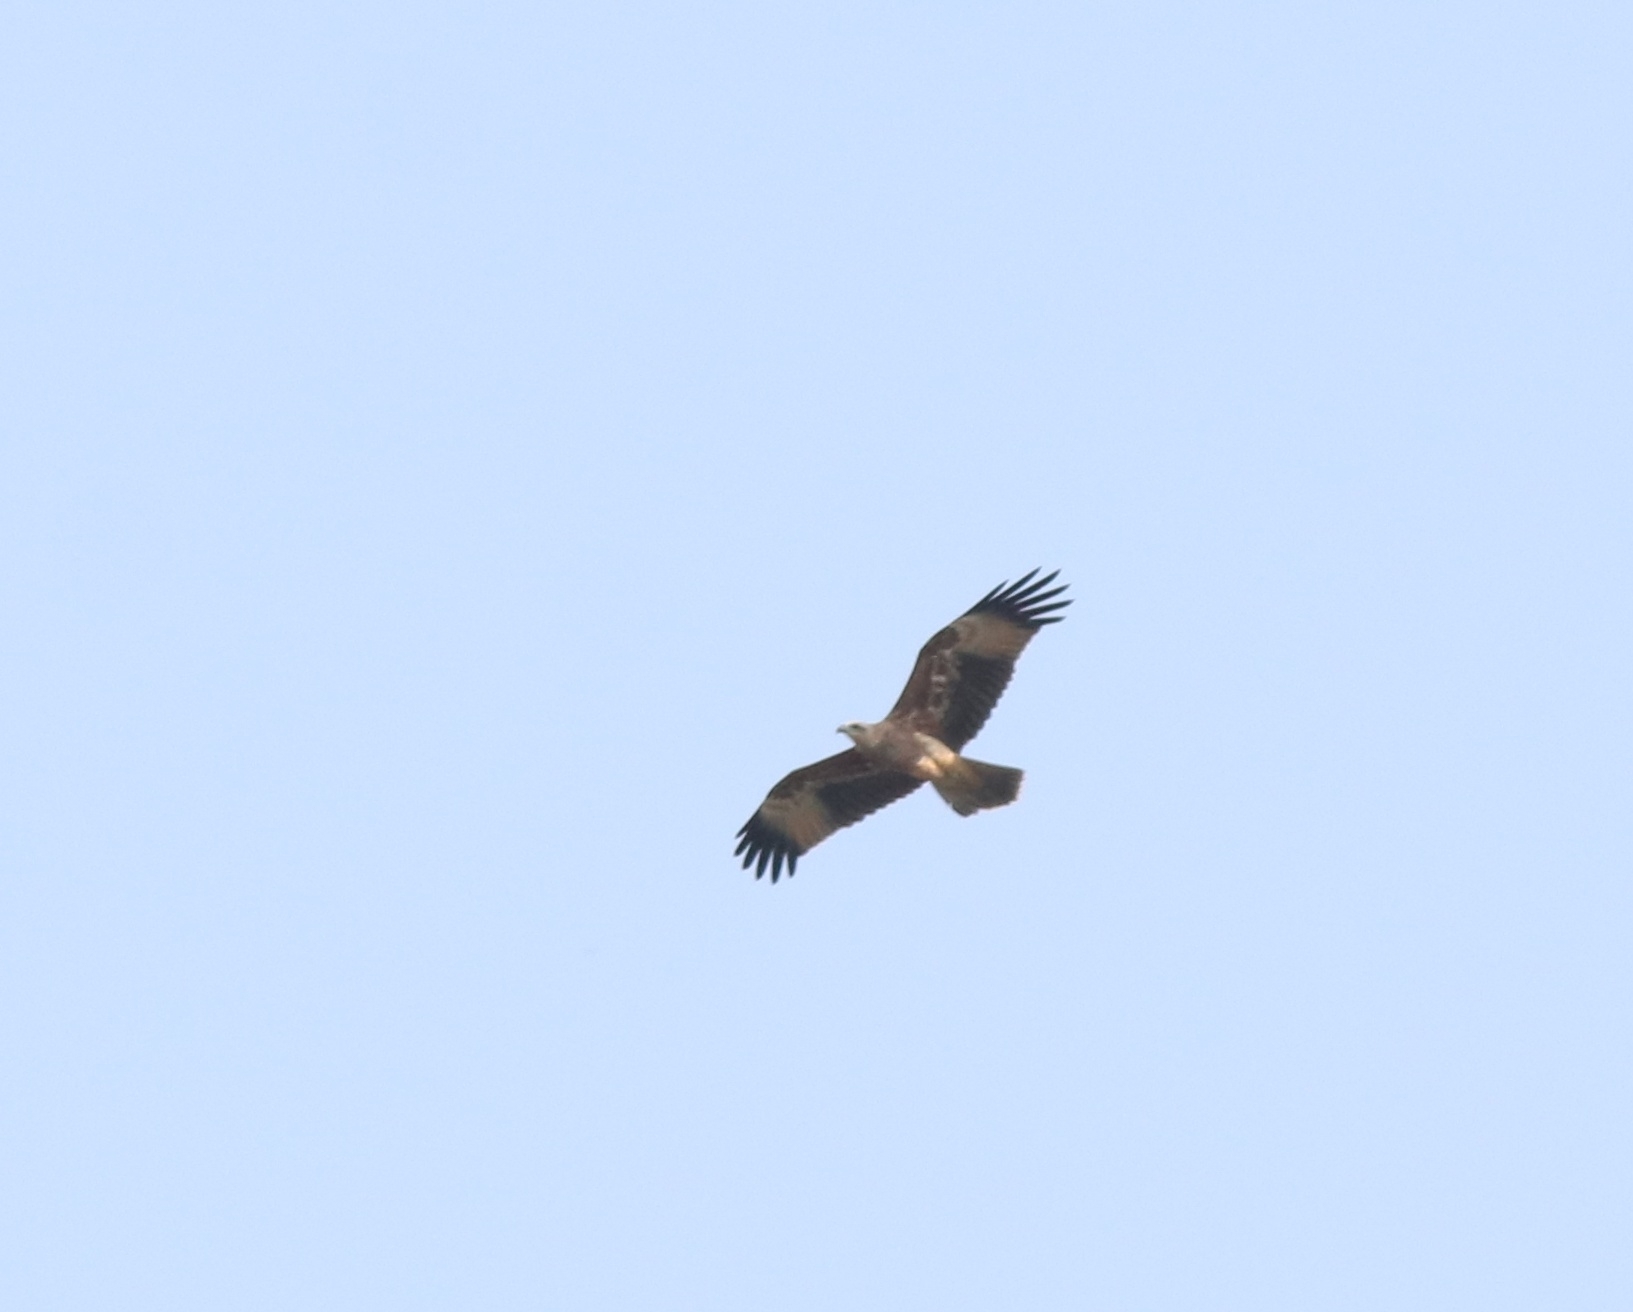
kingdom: Animalia
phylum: Chordata
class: Aves
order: Accipitriformes
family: Accipitridae
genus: Haliastur
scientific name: Haliastur indus
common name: Brahminy kite
